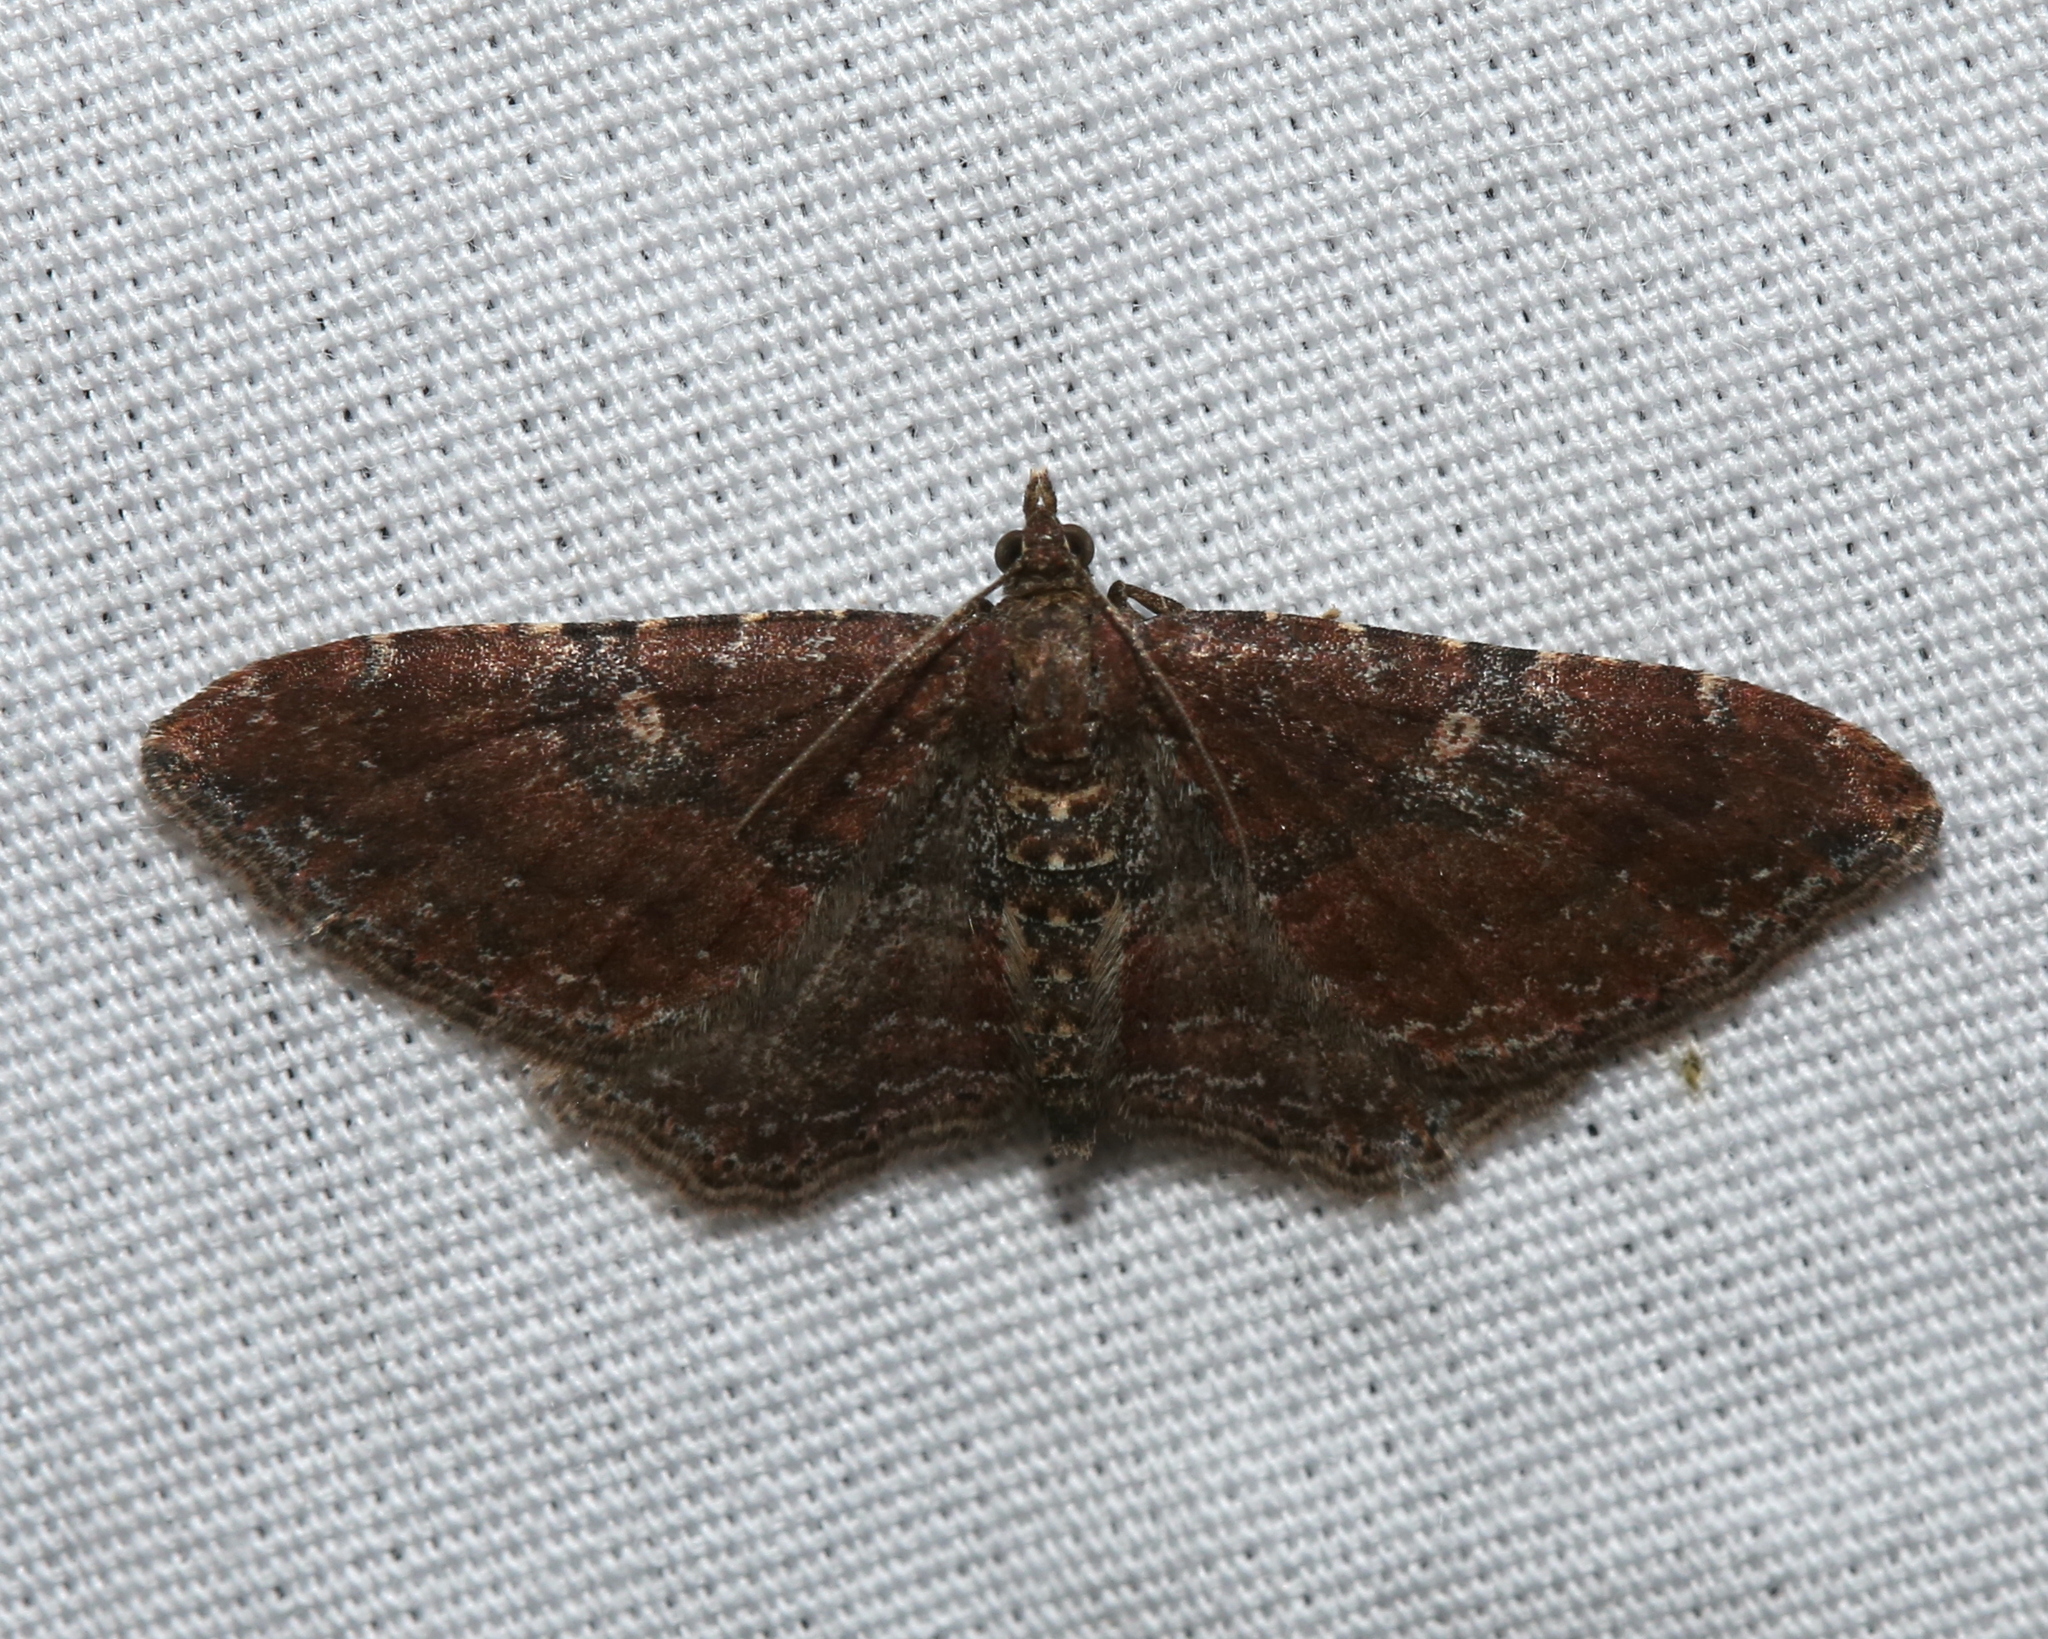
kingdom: Animalia
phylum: Arthropoda
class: Insecta
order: Lepidoptera
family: Geometridae
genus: Orthonama
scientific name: Orthonama obstipata
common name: The gem
